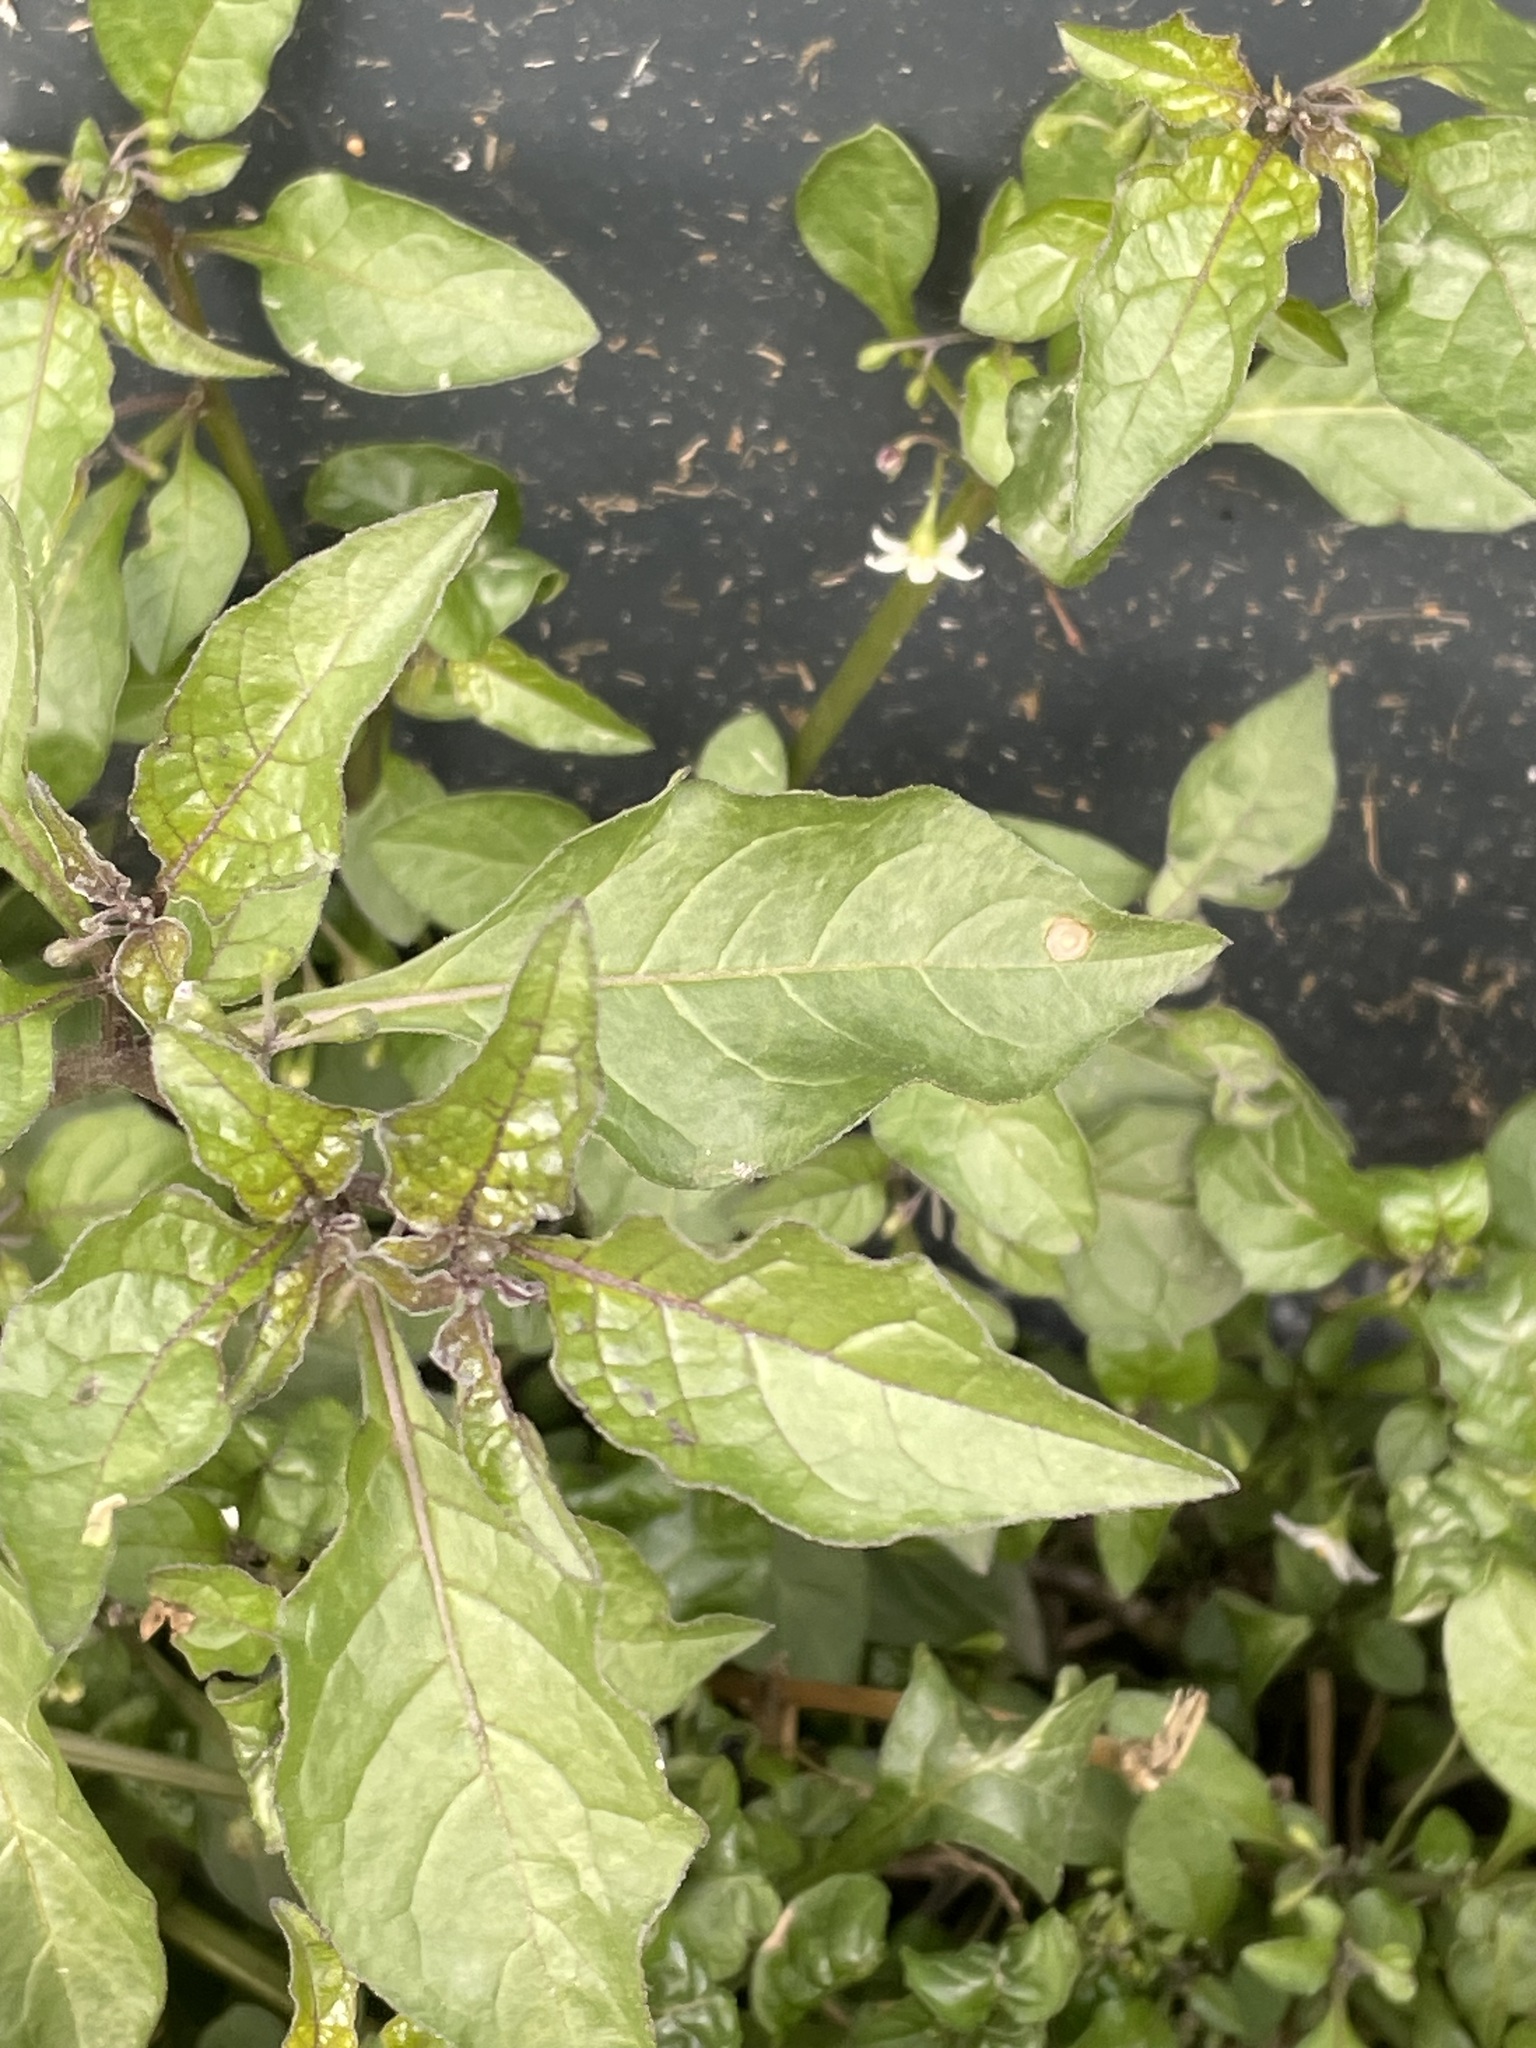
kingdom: Plantae
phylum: Tracheophyta
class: Magnoliopsida
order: Solanales
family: Solanaceae
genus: Solanum
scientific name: Solanum nigrum
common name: Black nightshade
